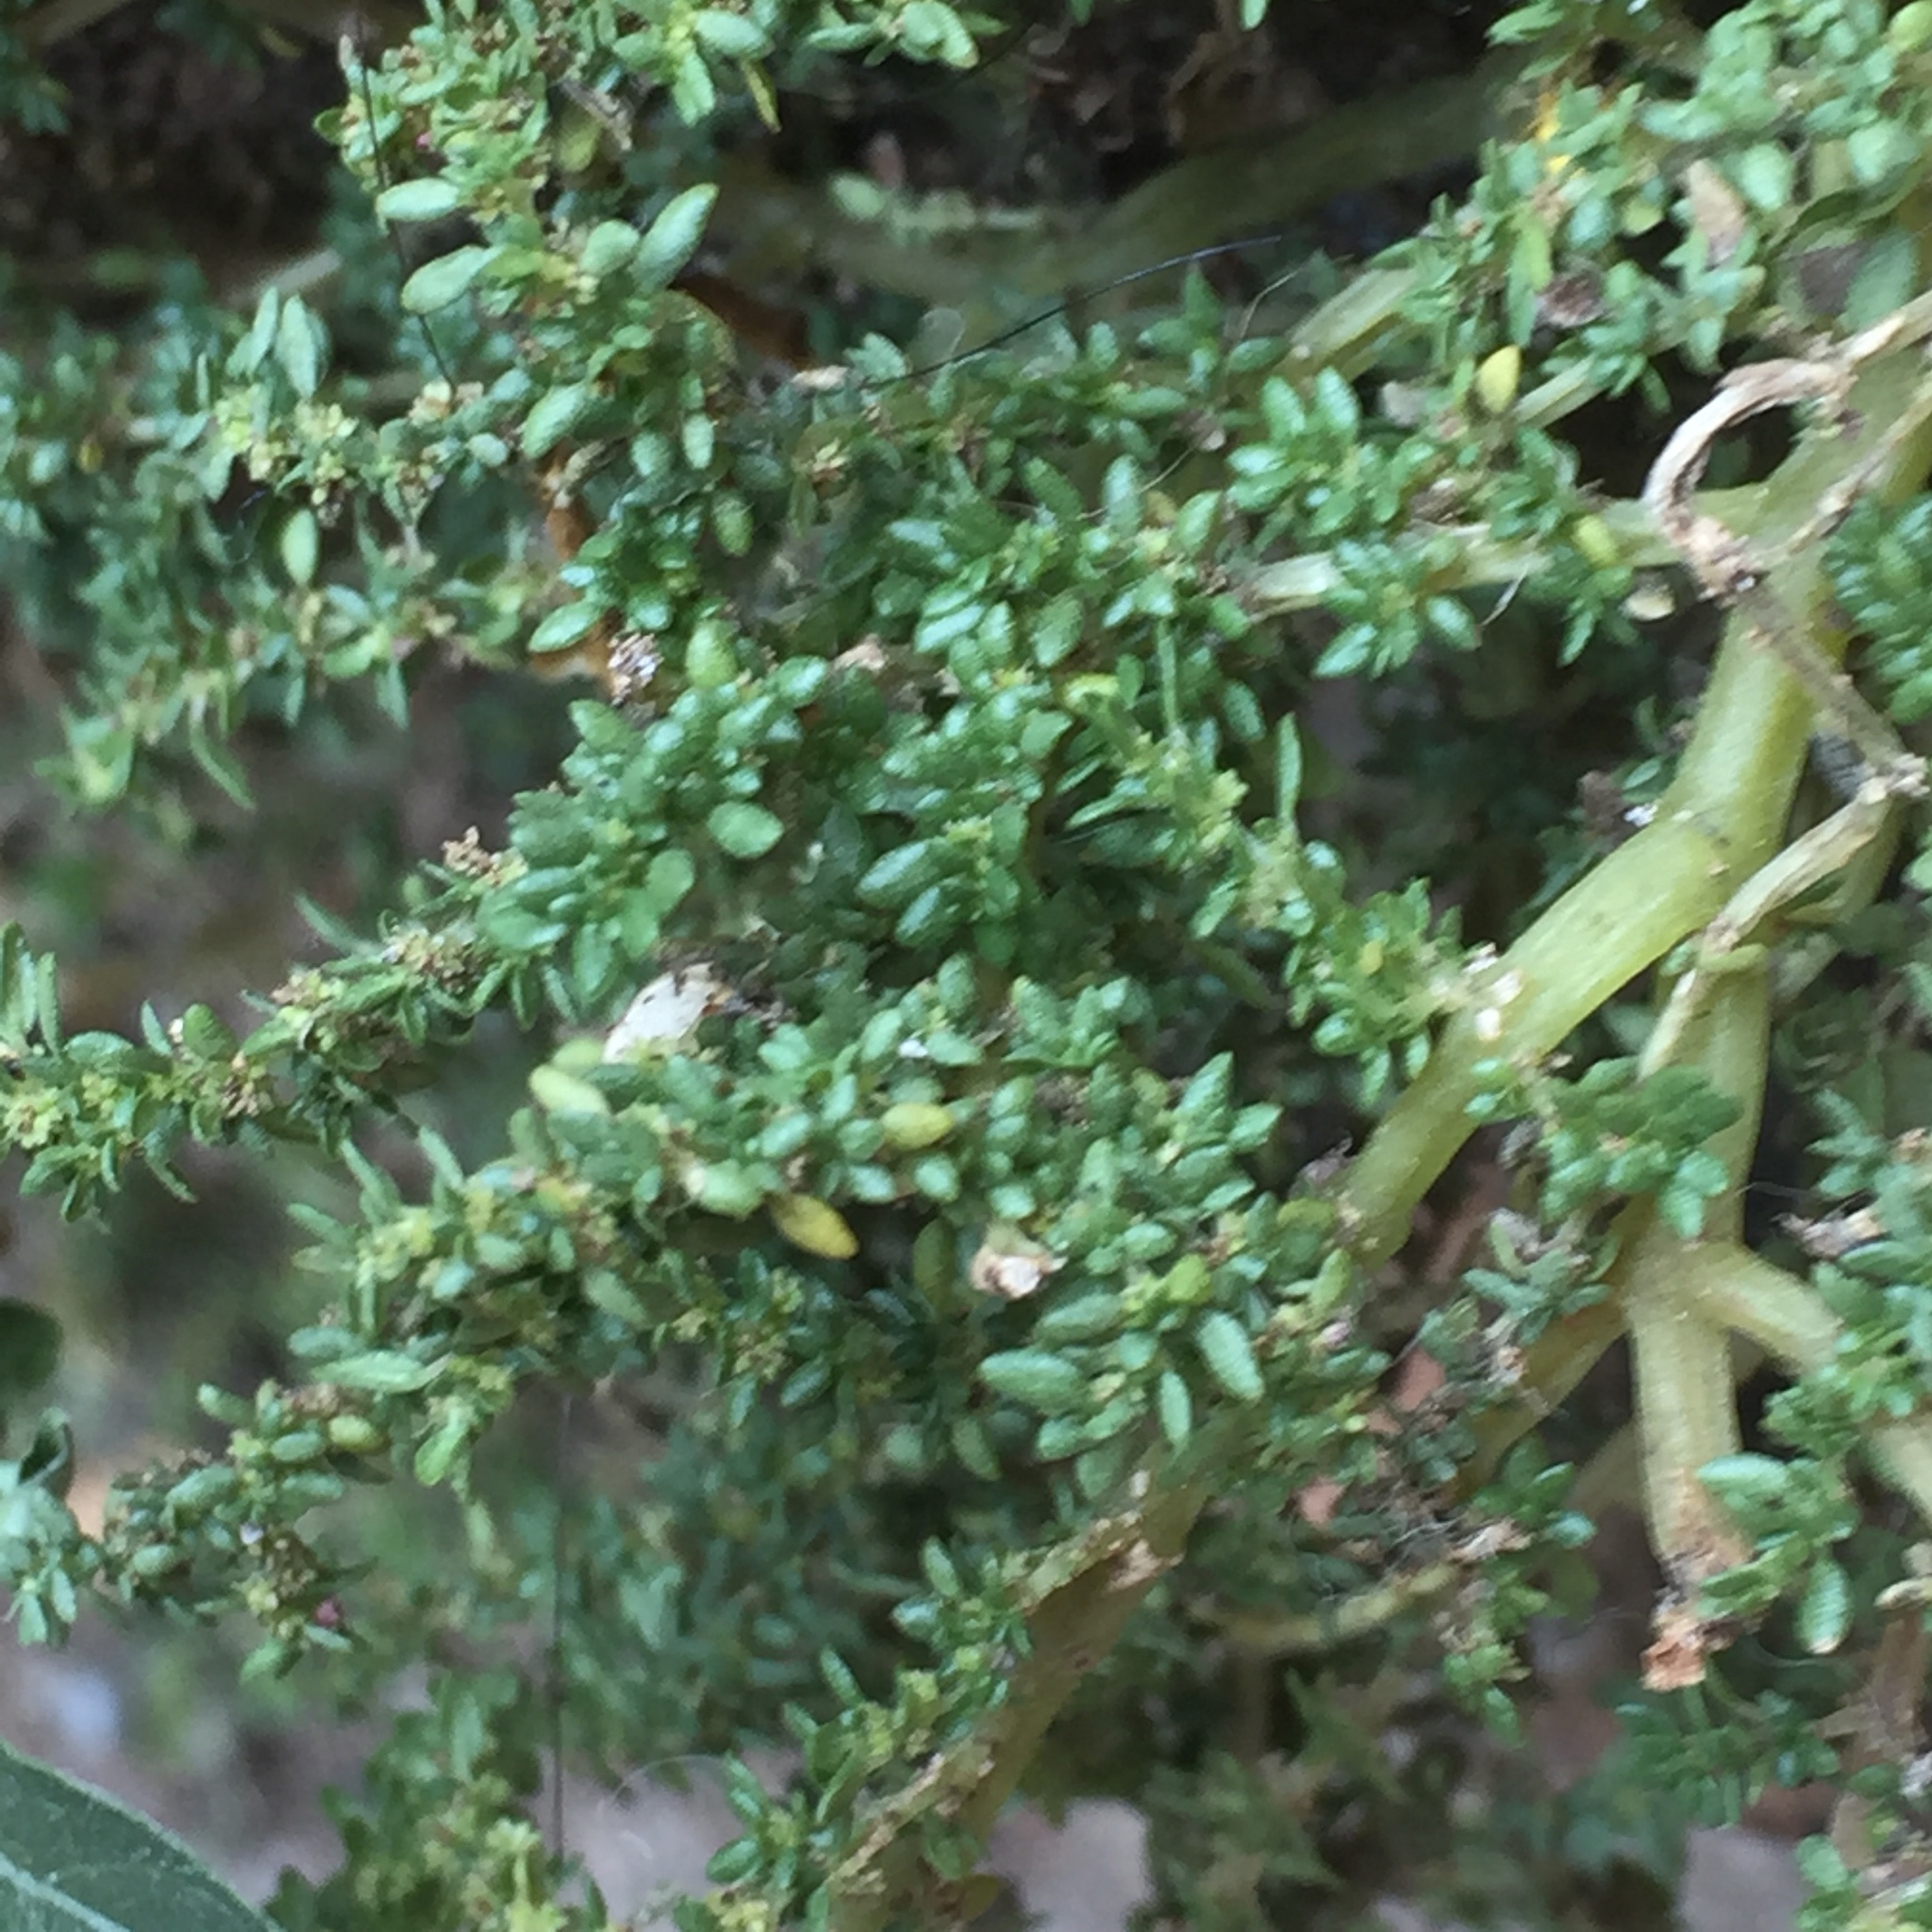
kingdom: Plantae
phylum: Tracheophyta
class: Magnoliopsida
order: Rosales
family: Urticaceae
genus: Pilea
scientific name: Pilea microphylla
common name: Artillery-plant
